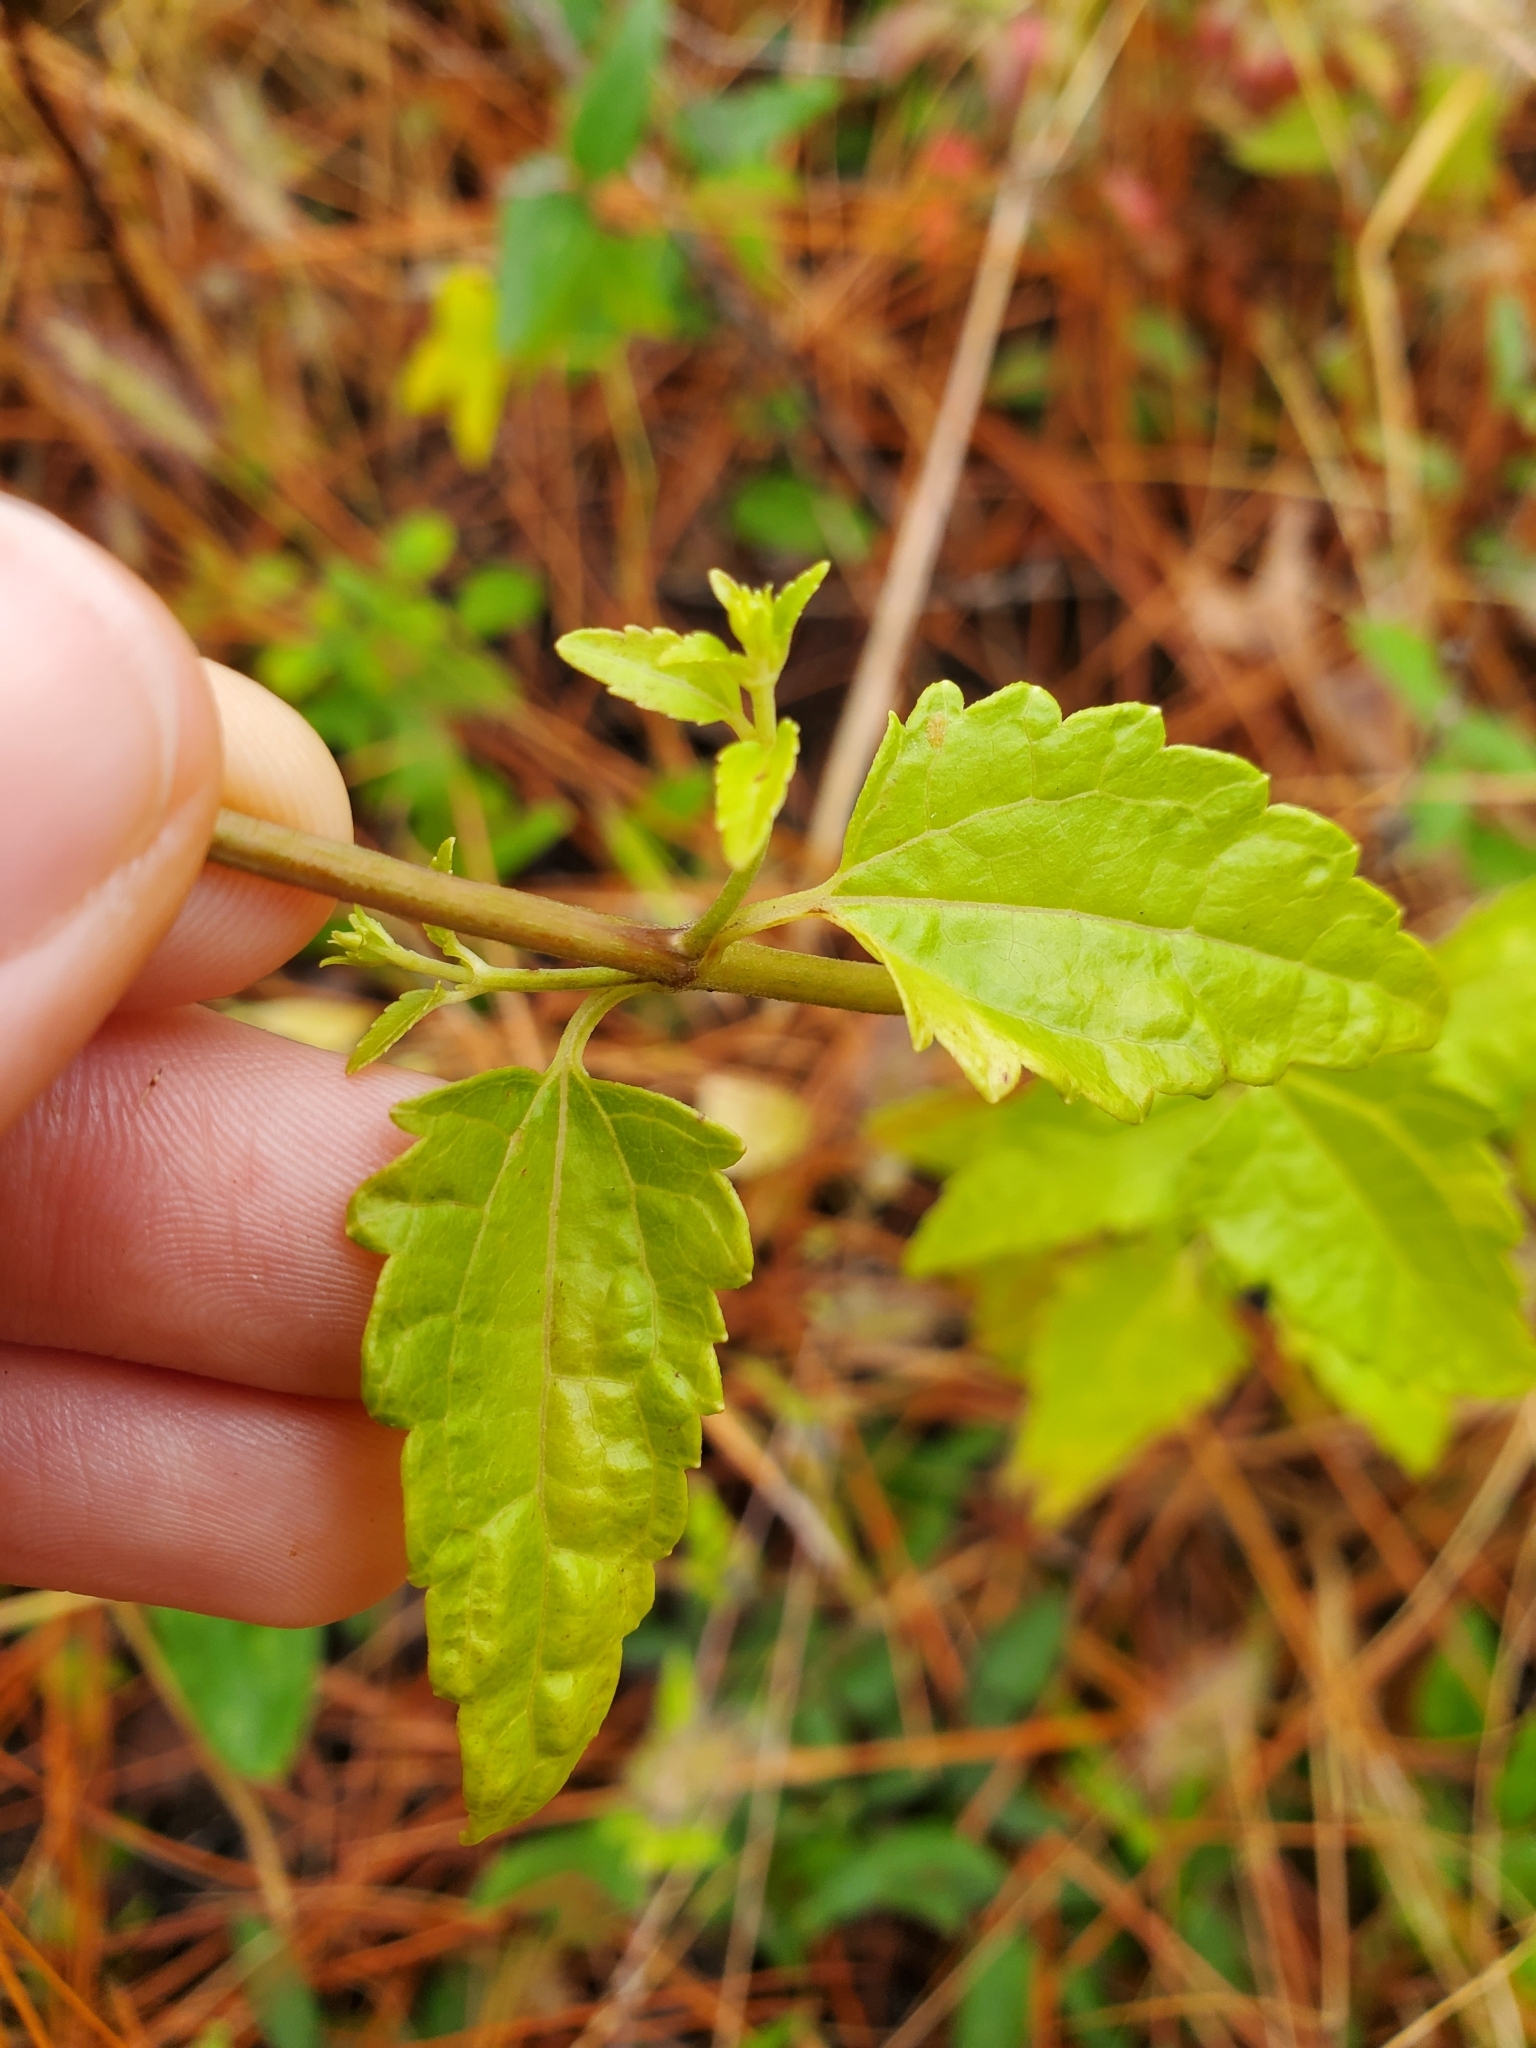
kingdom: Plantae
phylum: Tracheophyta
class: Magnoliopsida
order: Asterales
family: Asteraceae
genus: Ageratina
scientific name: Ageratina jucunda
